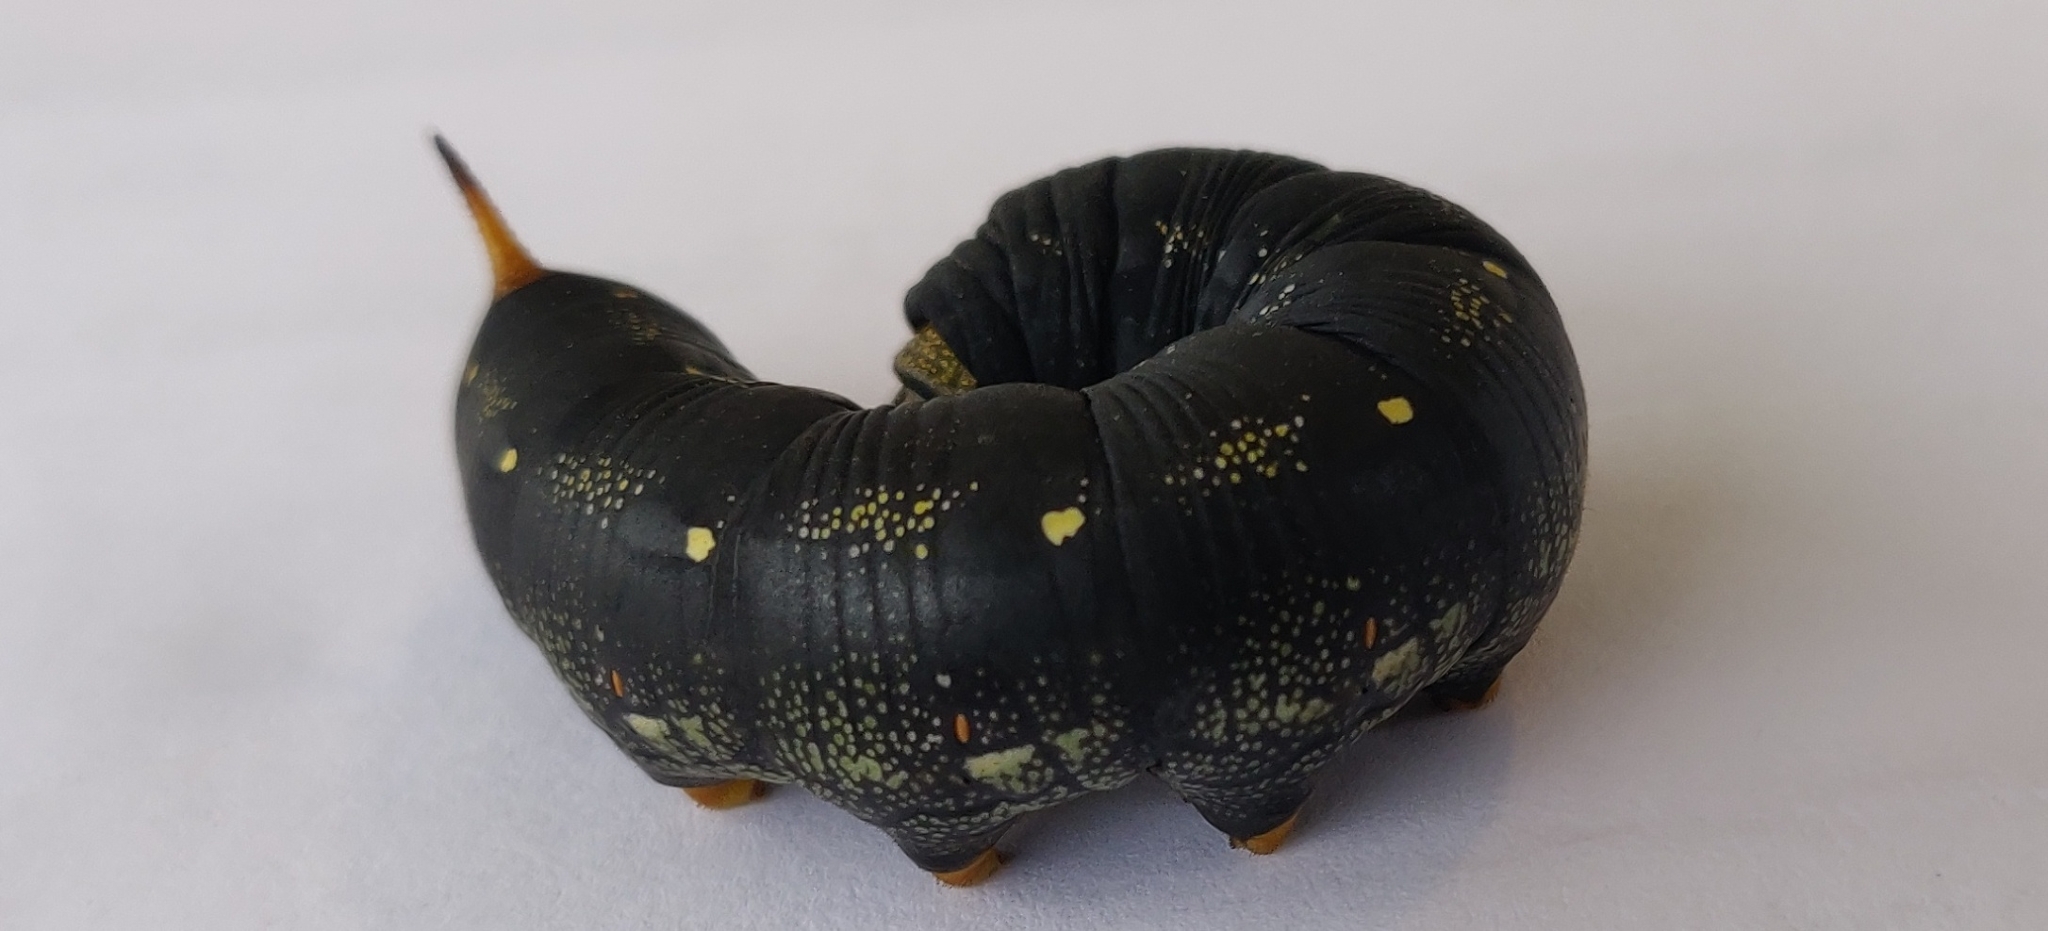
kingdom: Animalia
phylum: Arthropoda
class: Insecta
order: Lepidoptera
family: Sphingidae
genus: Hyles
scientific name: Hyles lineata
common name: White-lined sphinx
